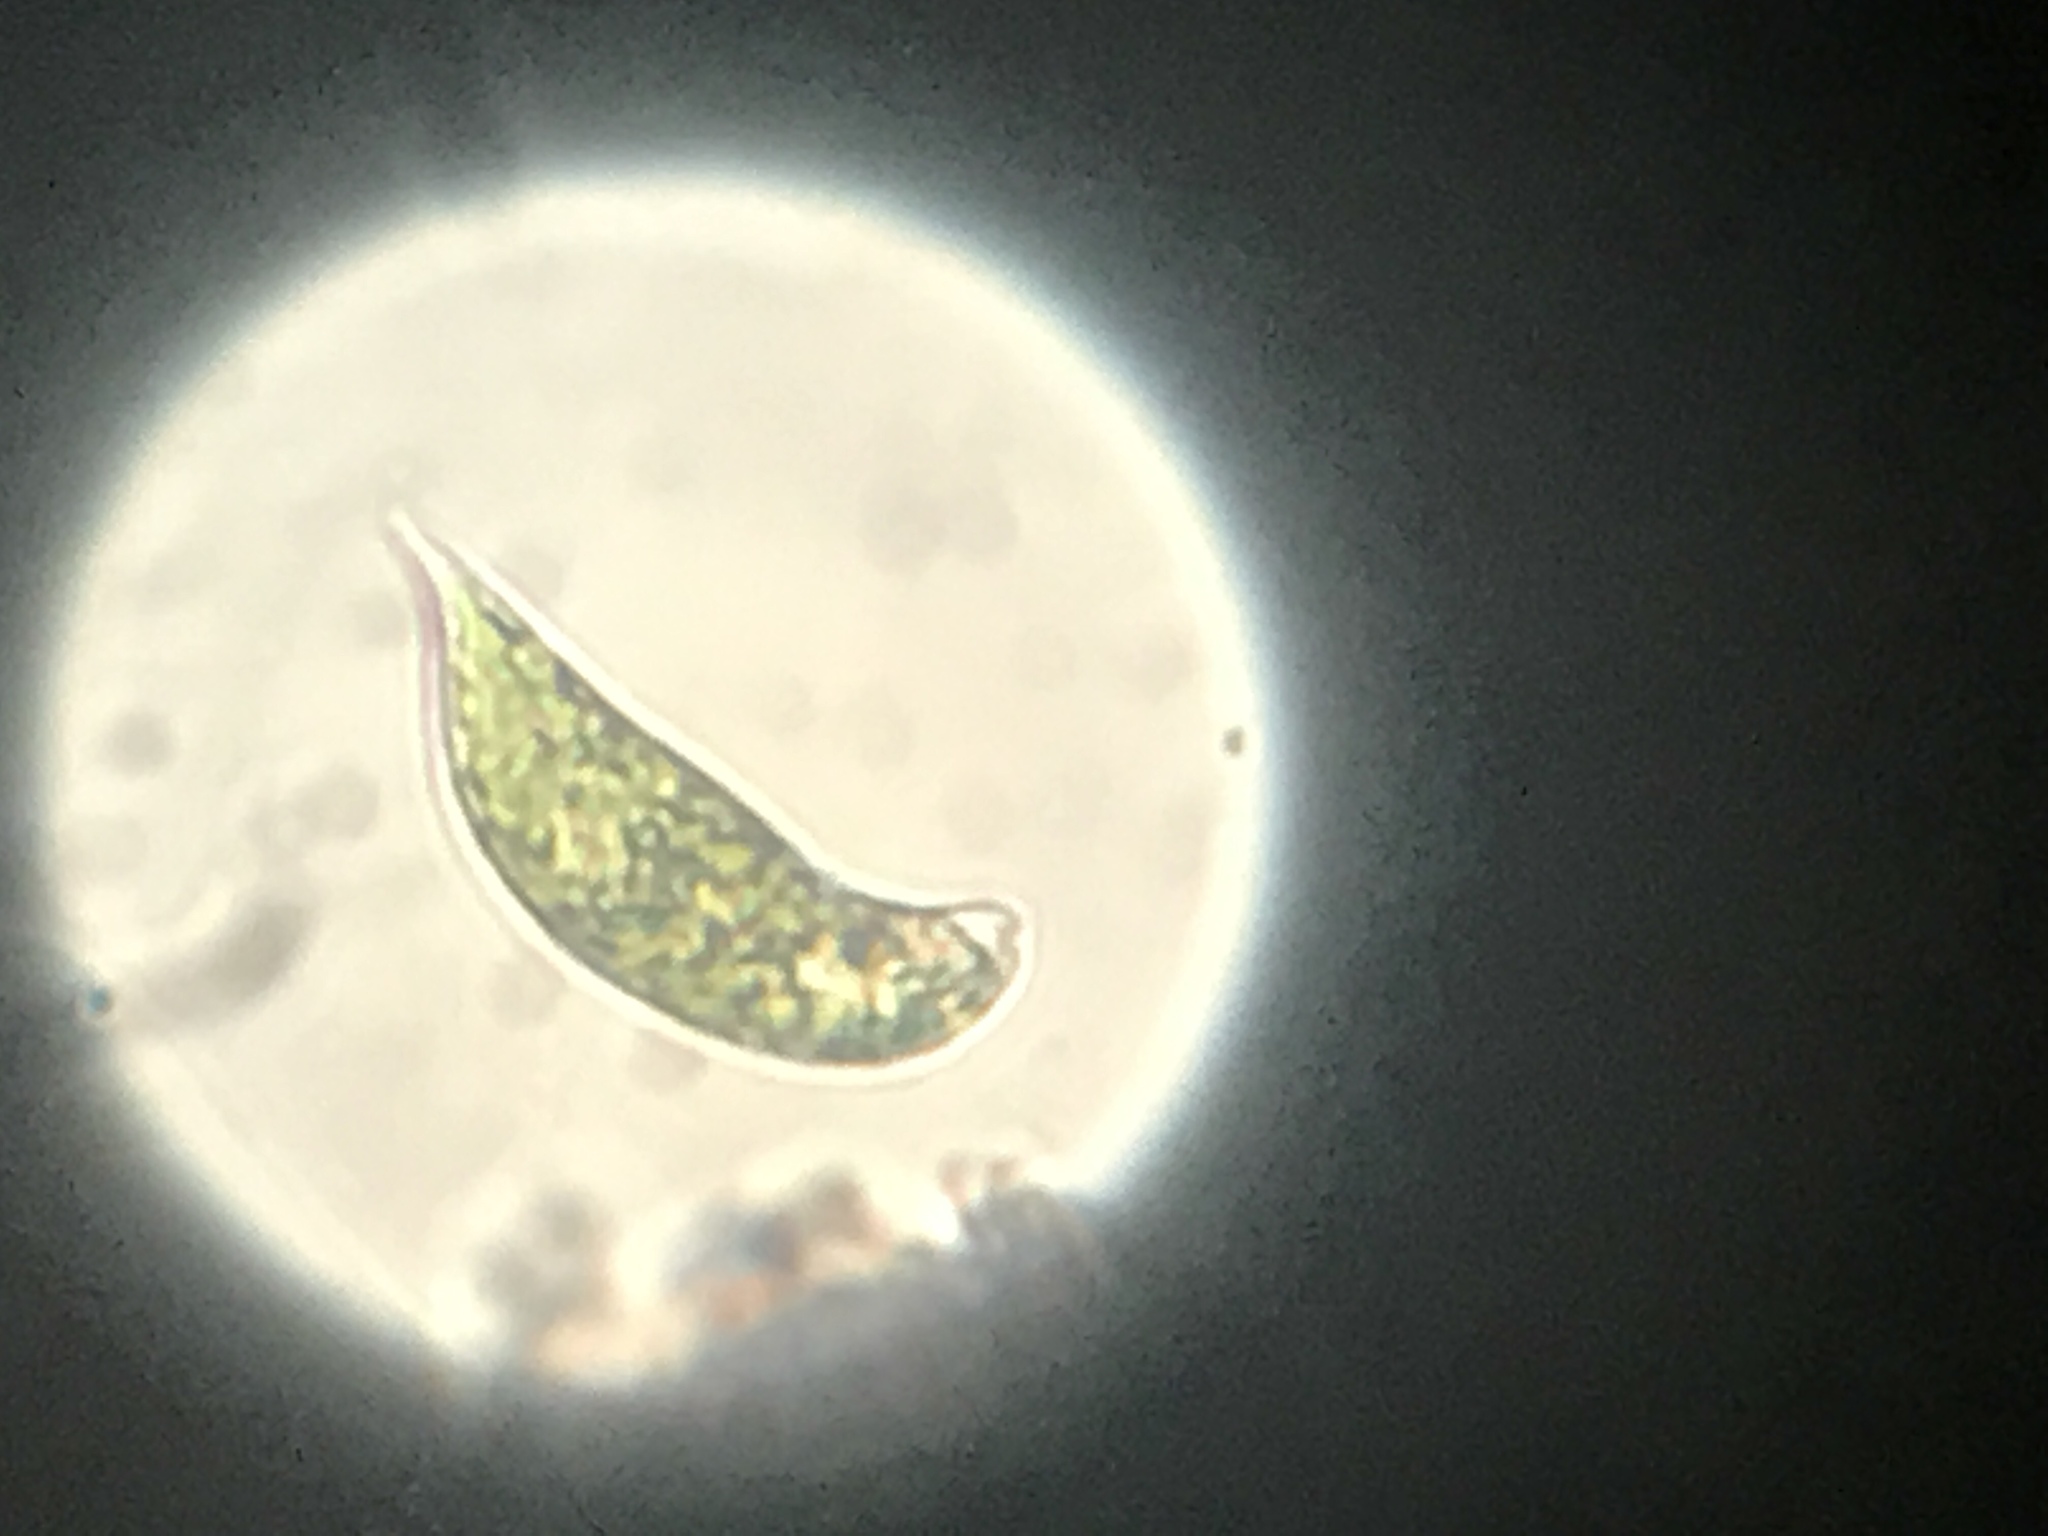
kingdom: Protozoa
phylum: Euglenozoa
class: Euglenoidea
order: Euglenida
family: Euglenaceae
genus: Euglena
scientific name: Euglena
